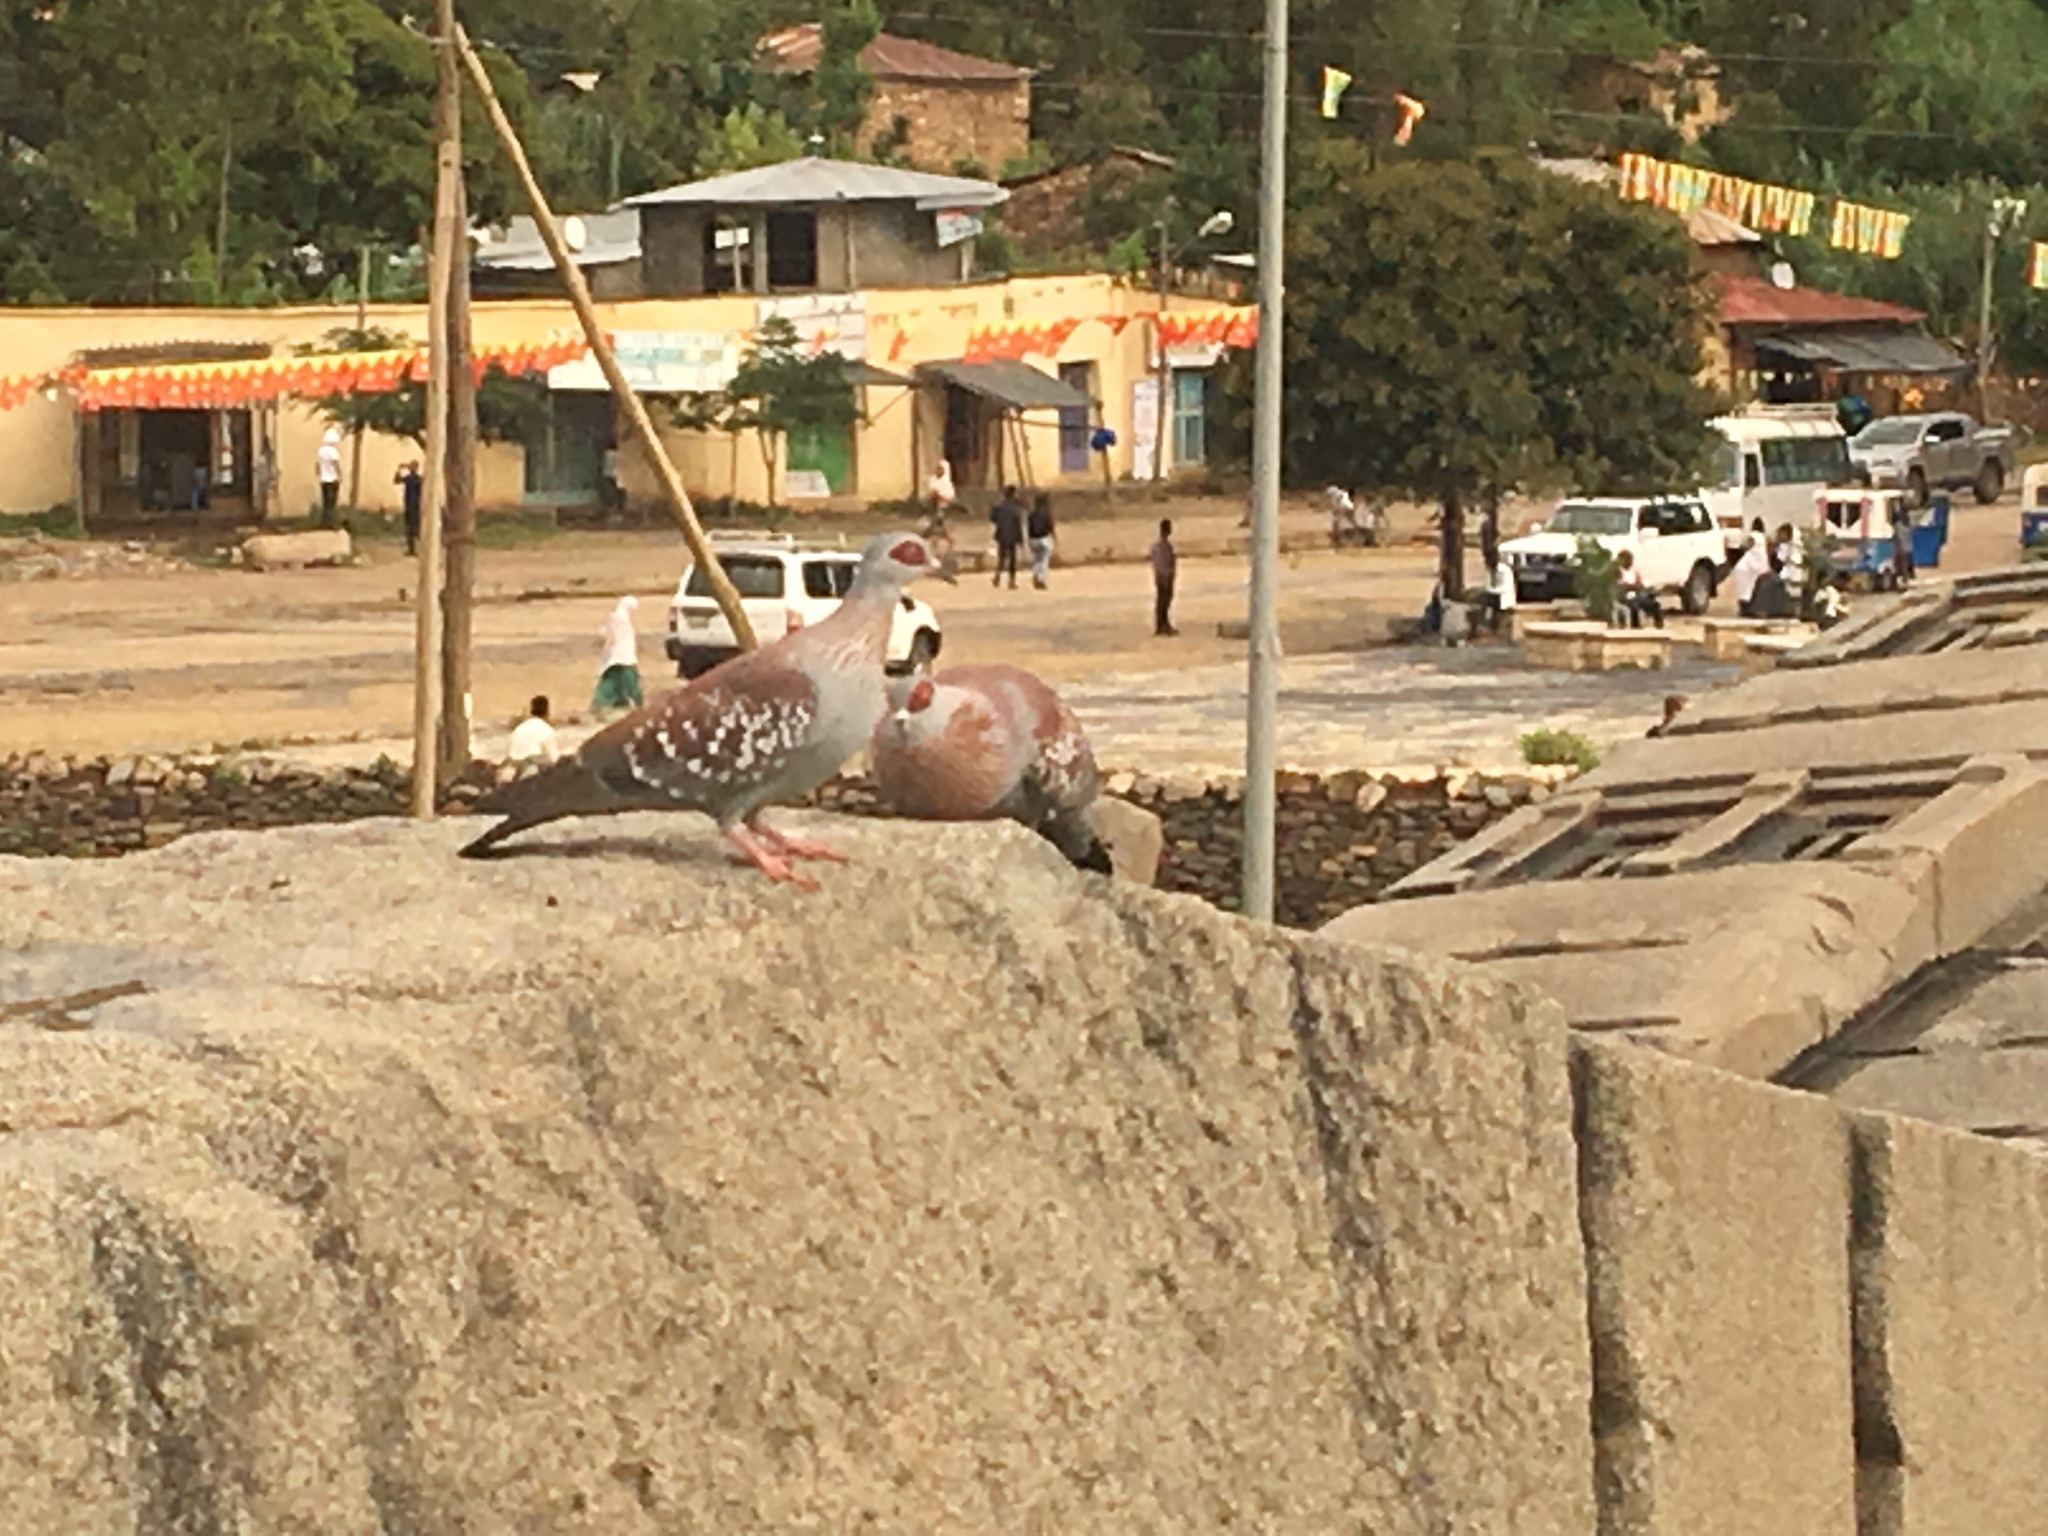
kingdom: Animalia
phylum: Chordata
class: Aves
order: Columbiformes
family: Columbidae
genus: Columba
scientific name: Columba guinea
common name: Speckled pigeon
